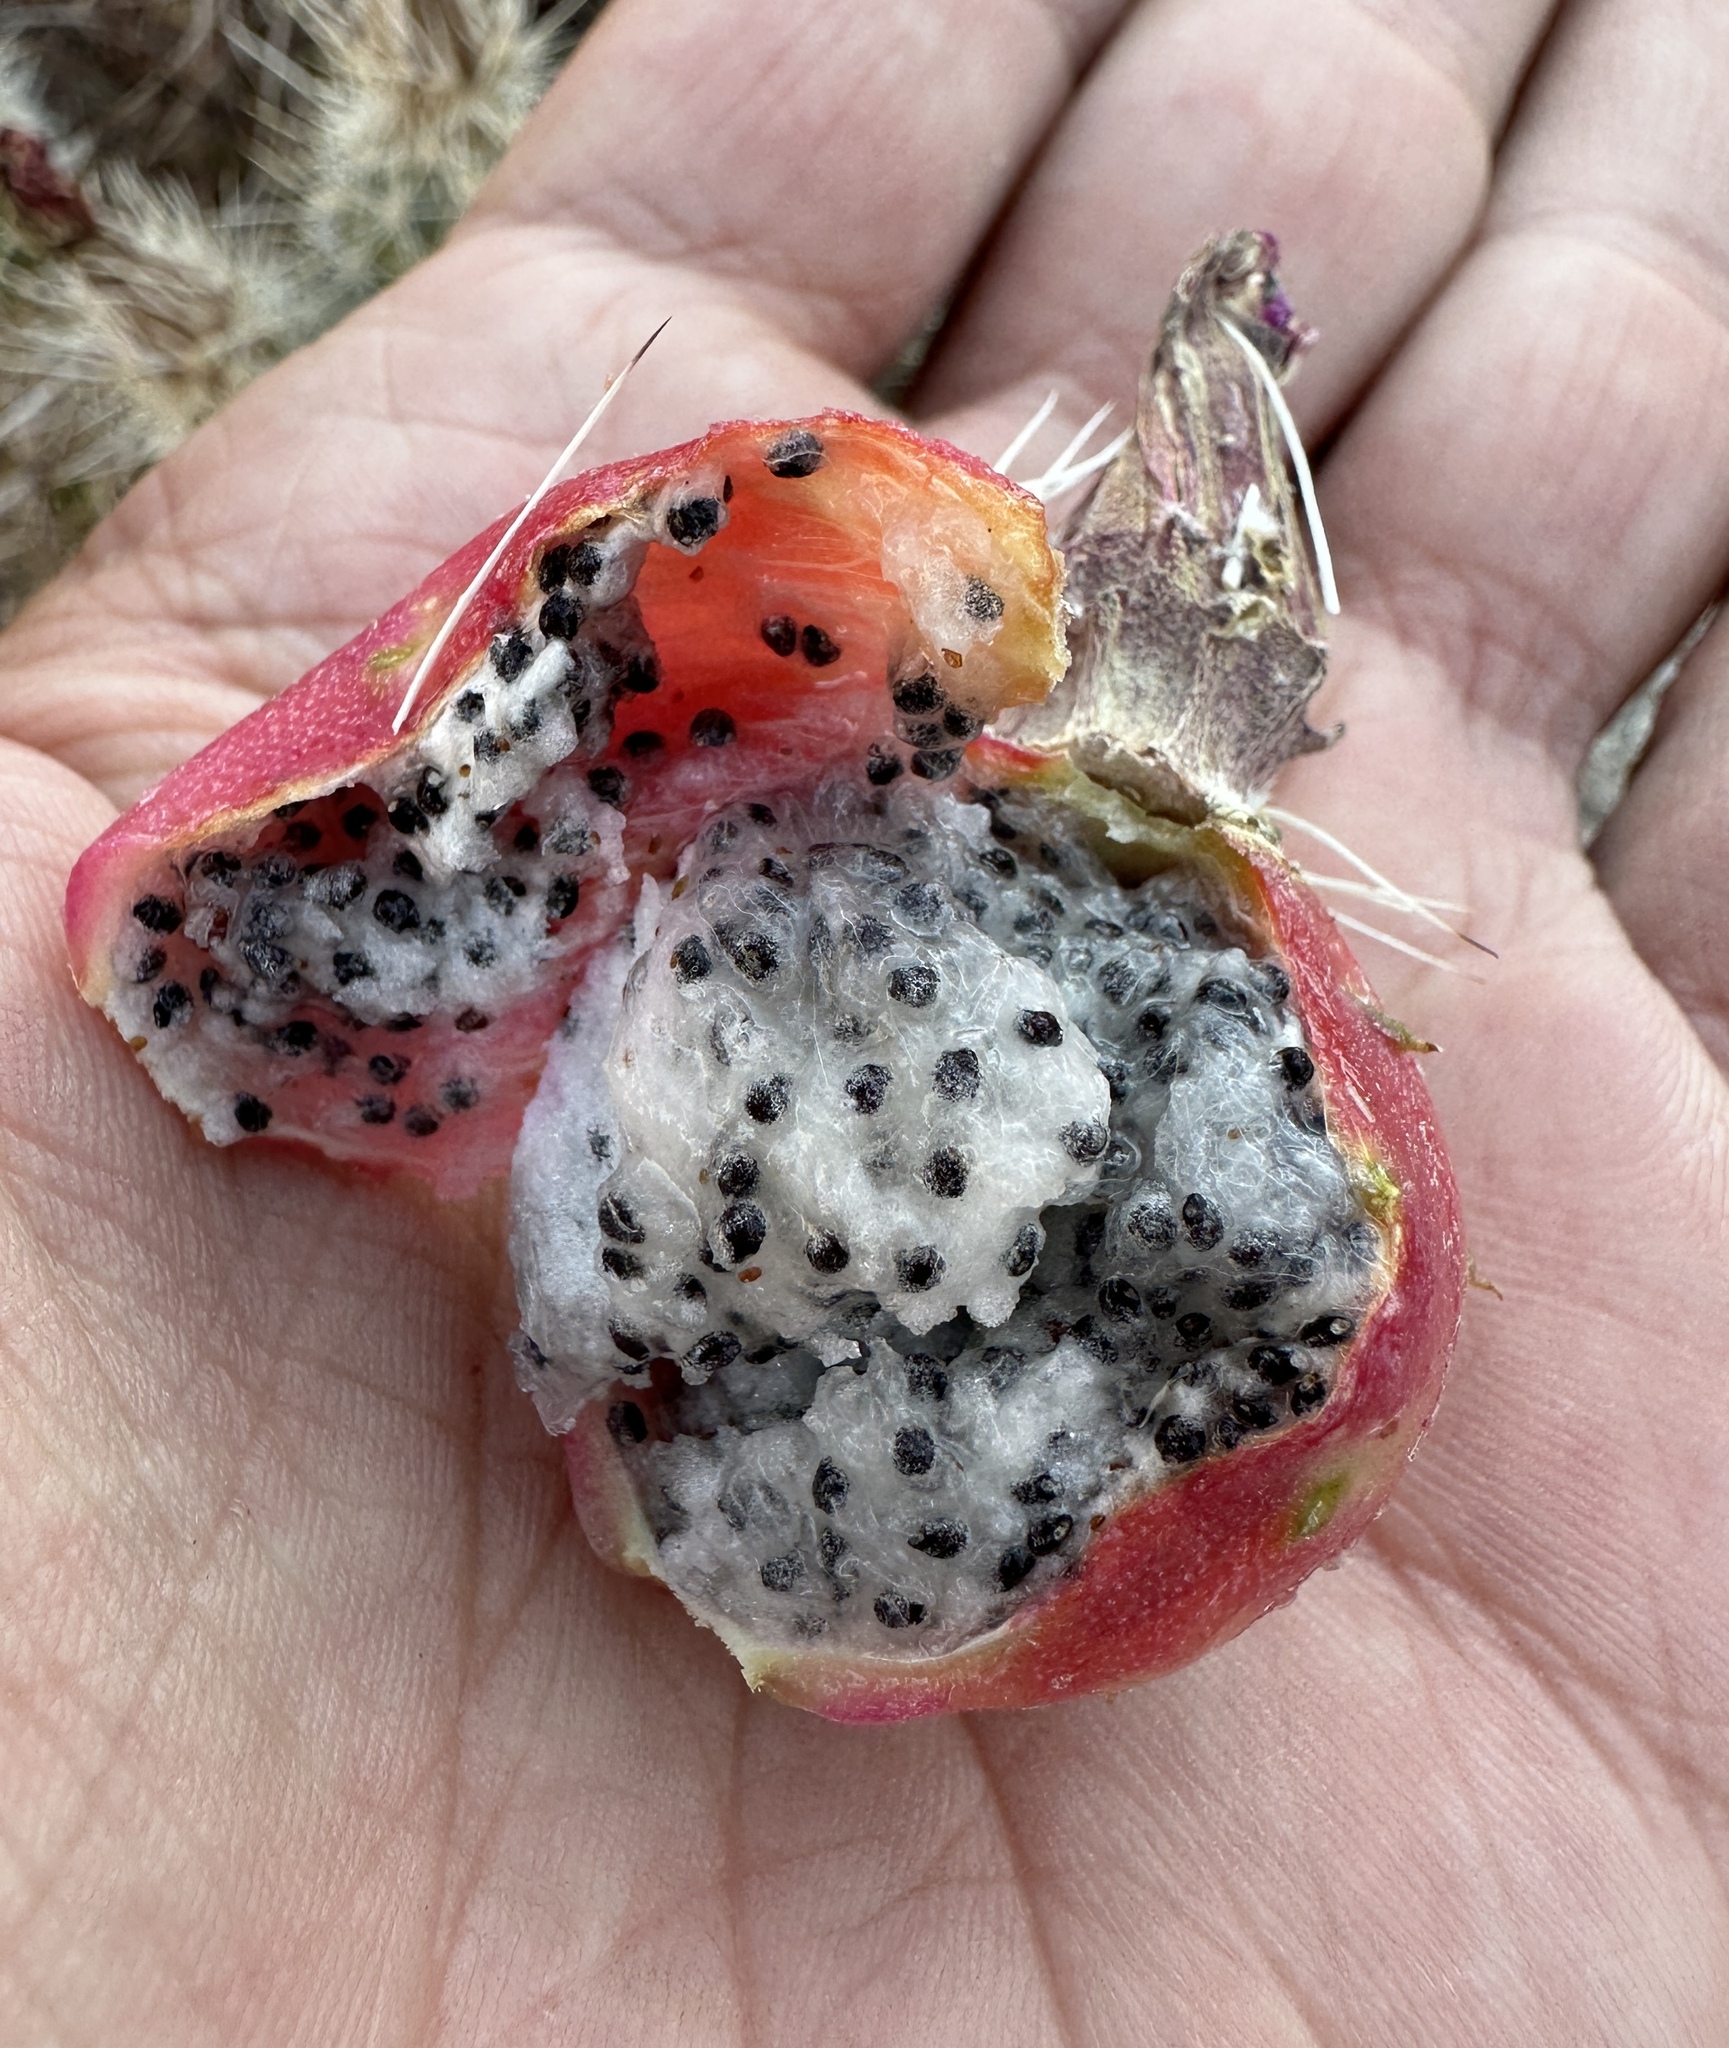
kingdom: Plantae
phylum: Tracheophyta
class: Magnoliopsida
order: Caryophyllales
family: Cactaceae
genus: Echinocereus
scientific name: Echinocereus engelmannii
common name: Engelmann's hedgehog cactus
